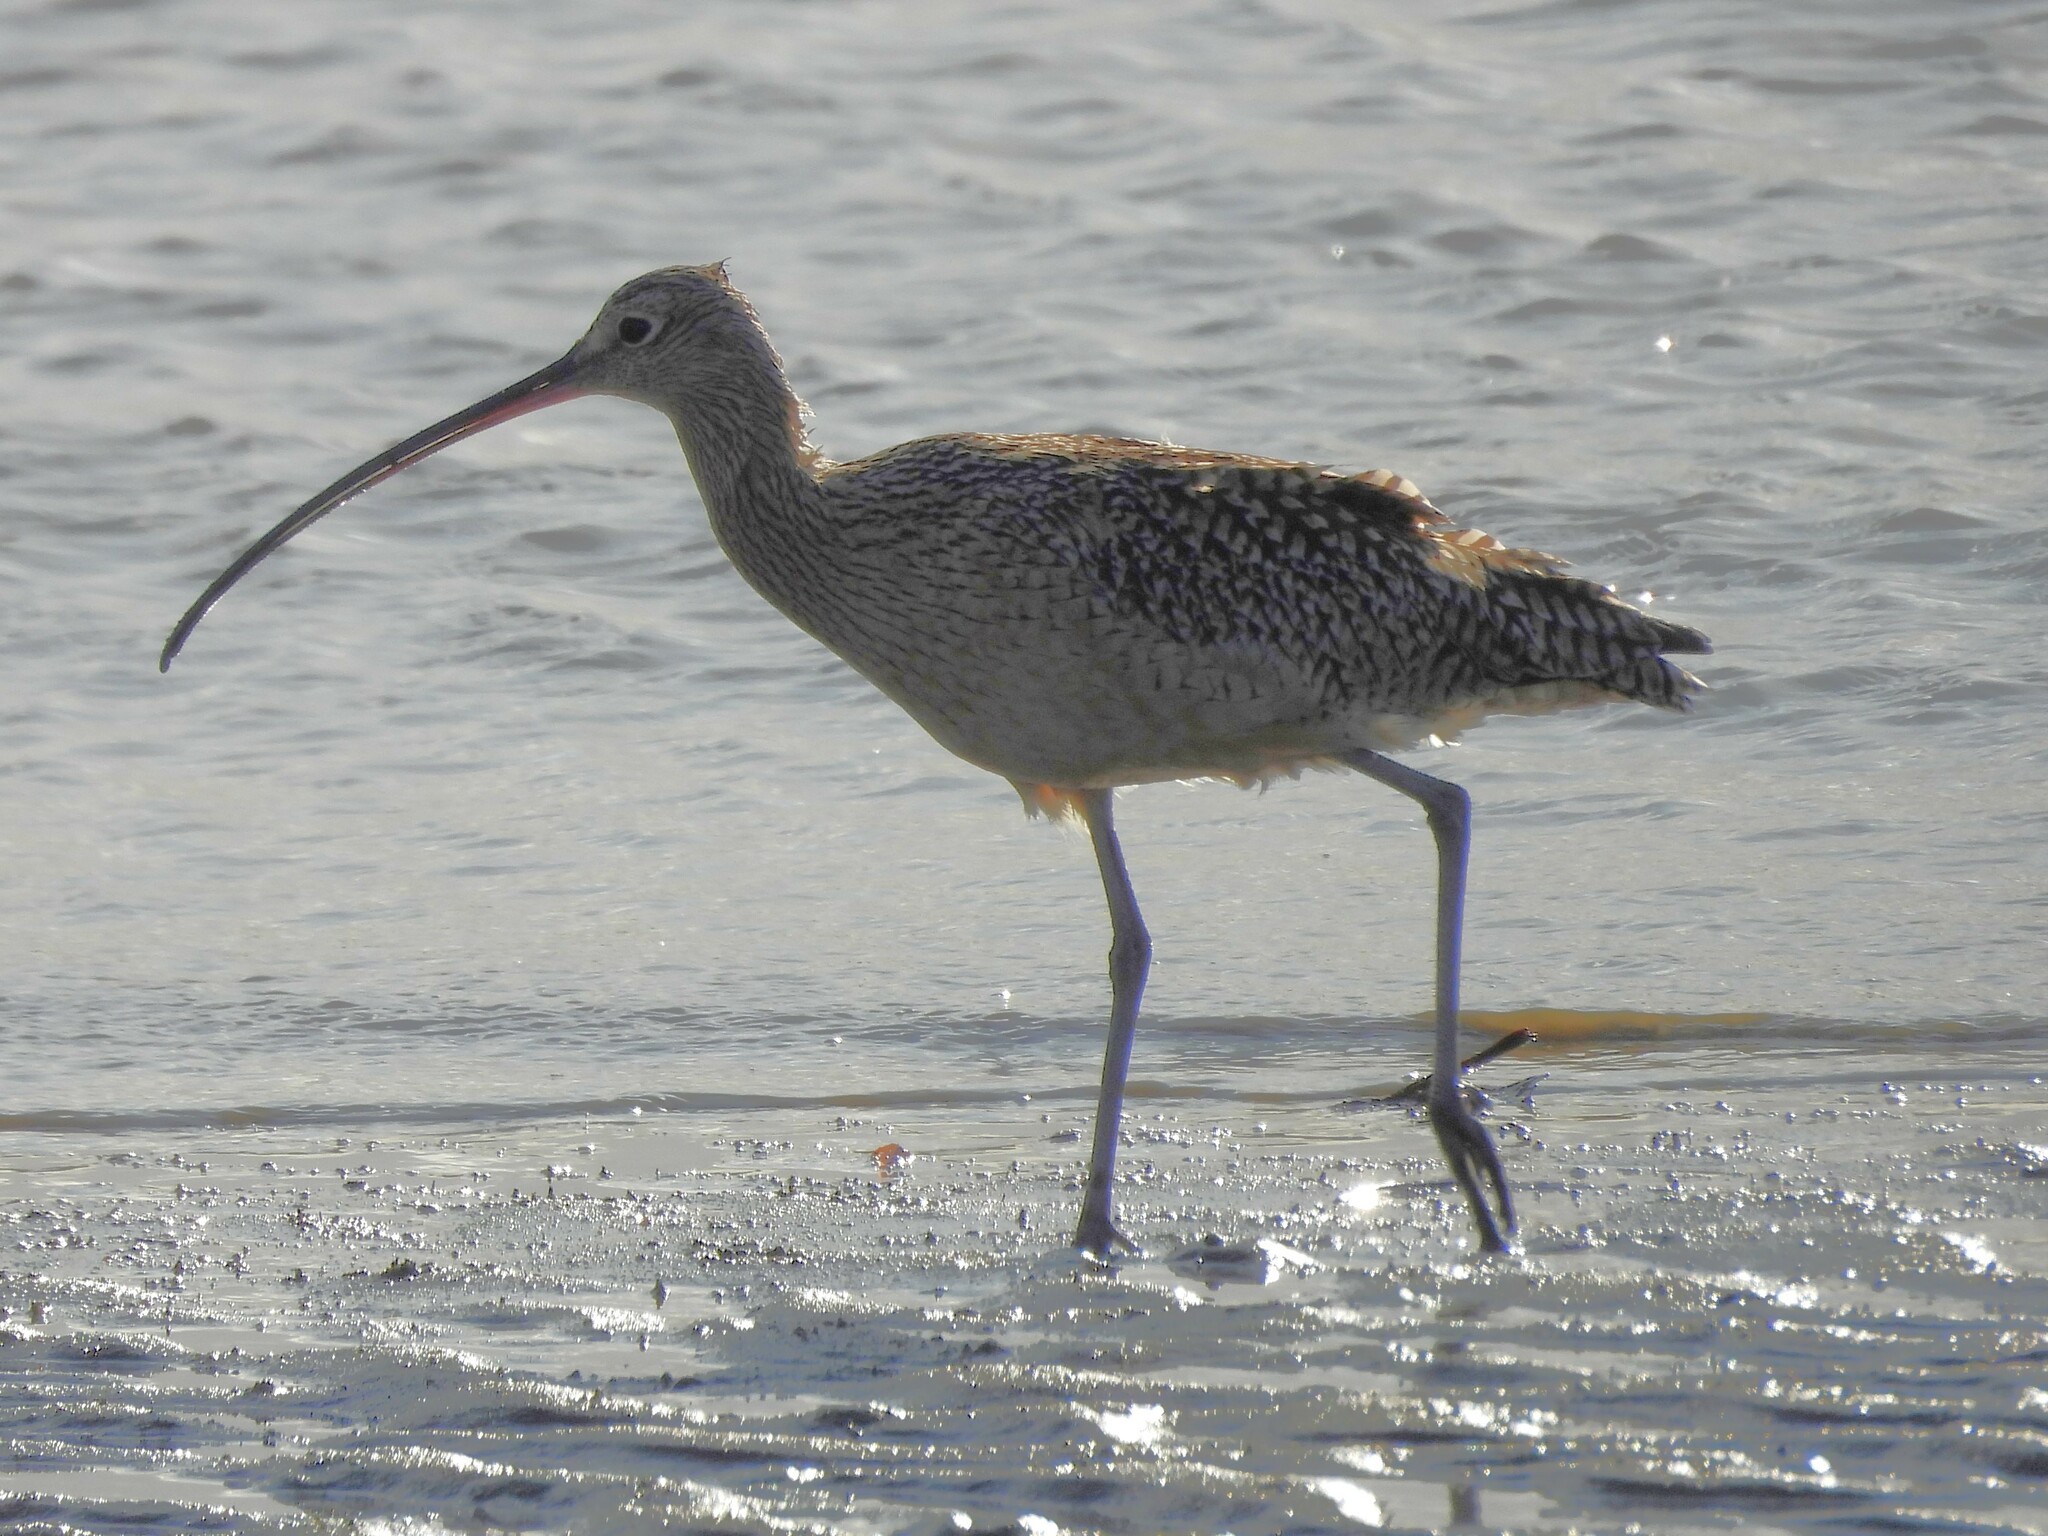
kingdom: Animalia
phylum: Chordata
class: Aves
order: Charadriiformes
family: Scolopacidae
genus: Numenius
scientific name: Numenius americanus
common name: Long-billed curlew
